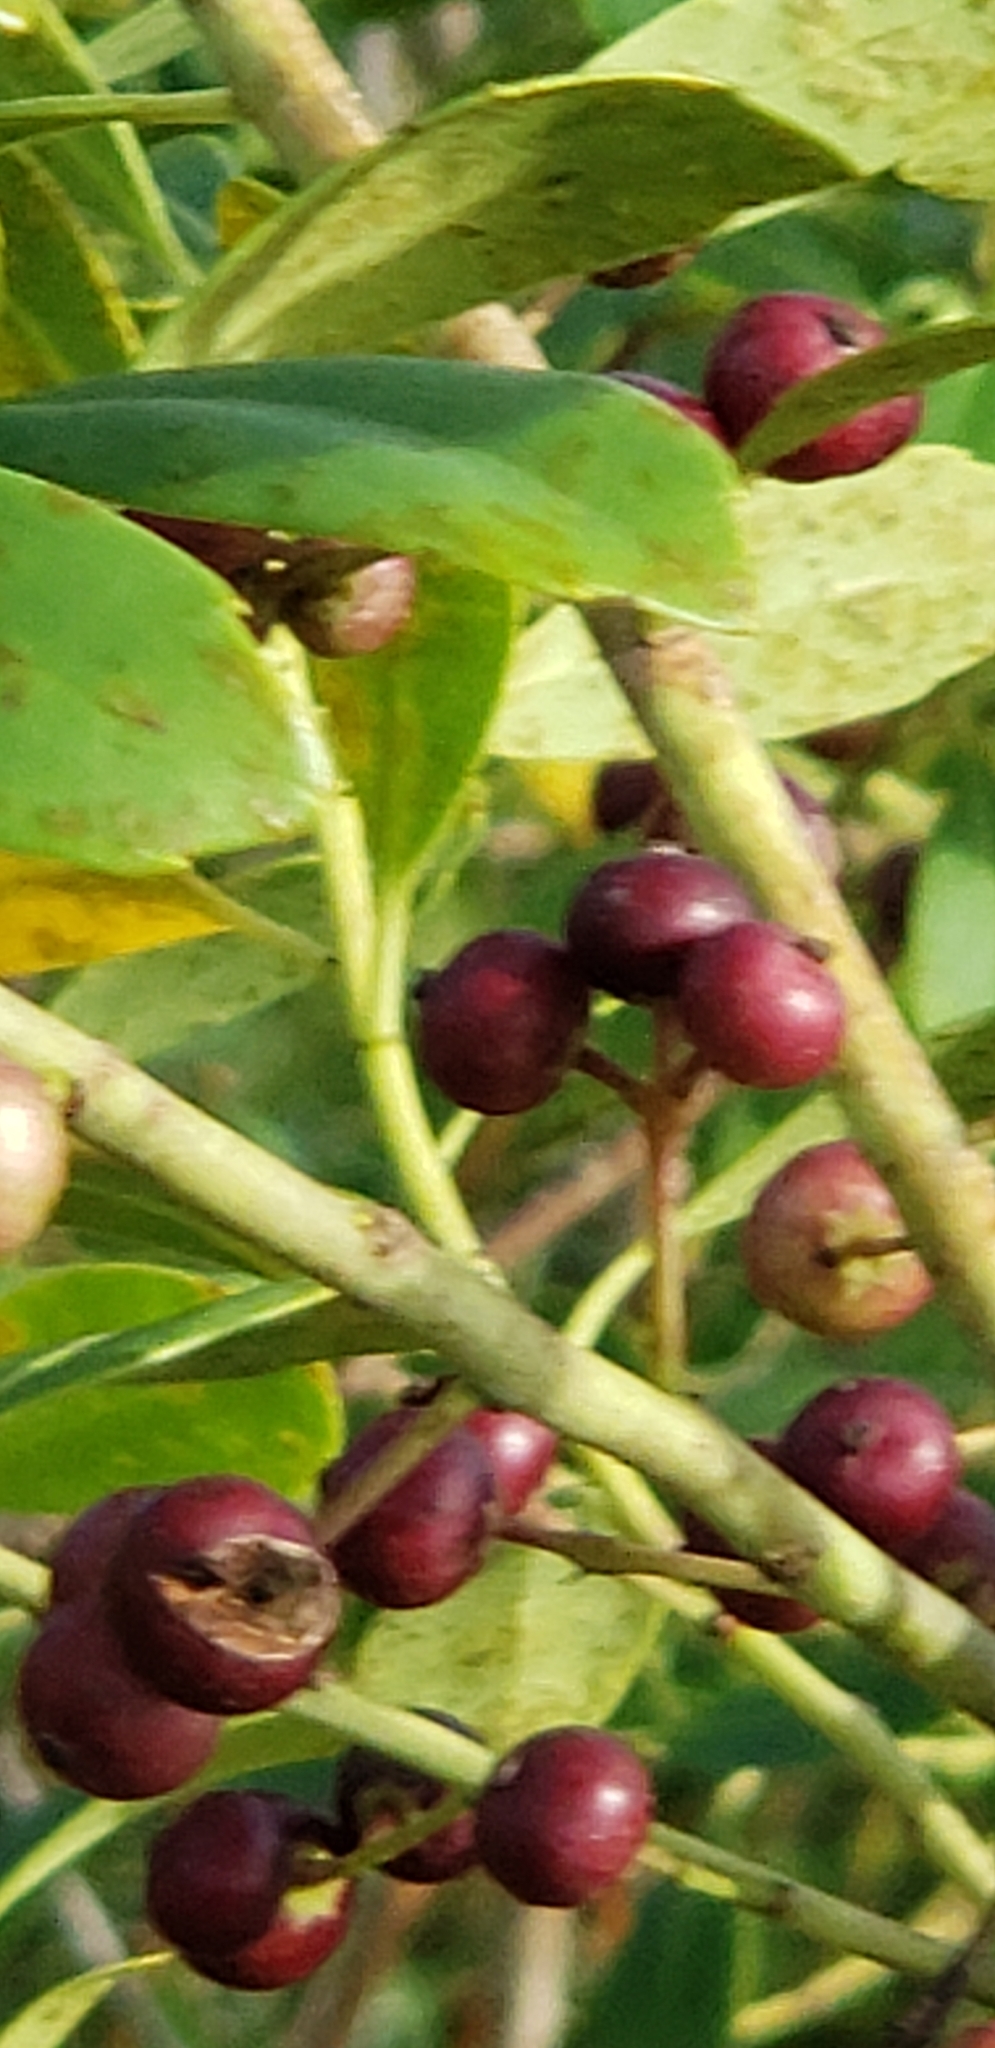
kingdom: Plantae
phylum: Tracheophyta
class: Magnoliopsida
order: Aquifoliales
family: Aquifoliaceae
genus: Ilex
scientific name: Ilex glabra
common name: Bitter gallberry
